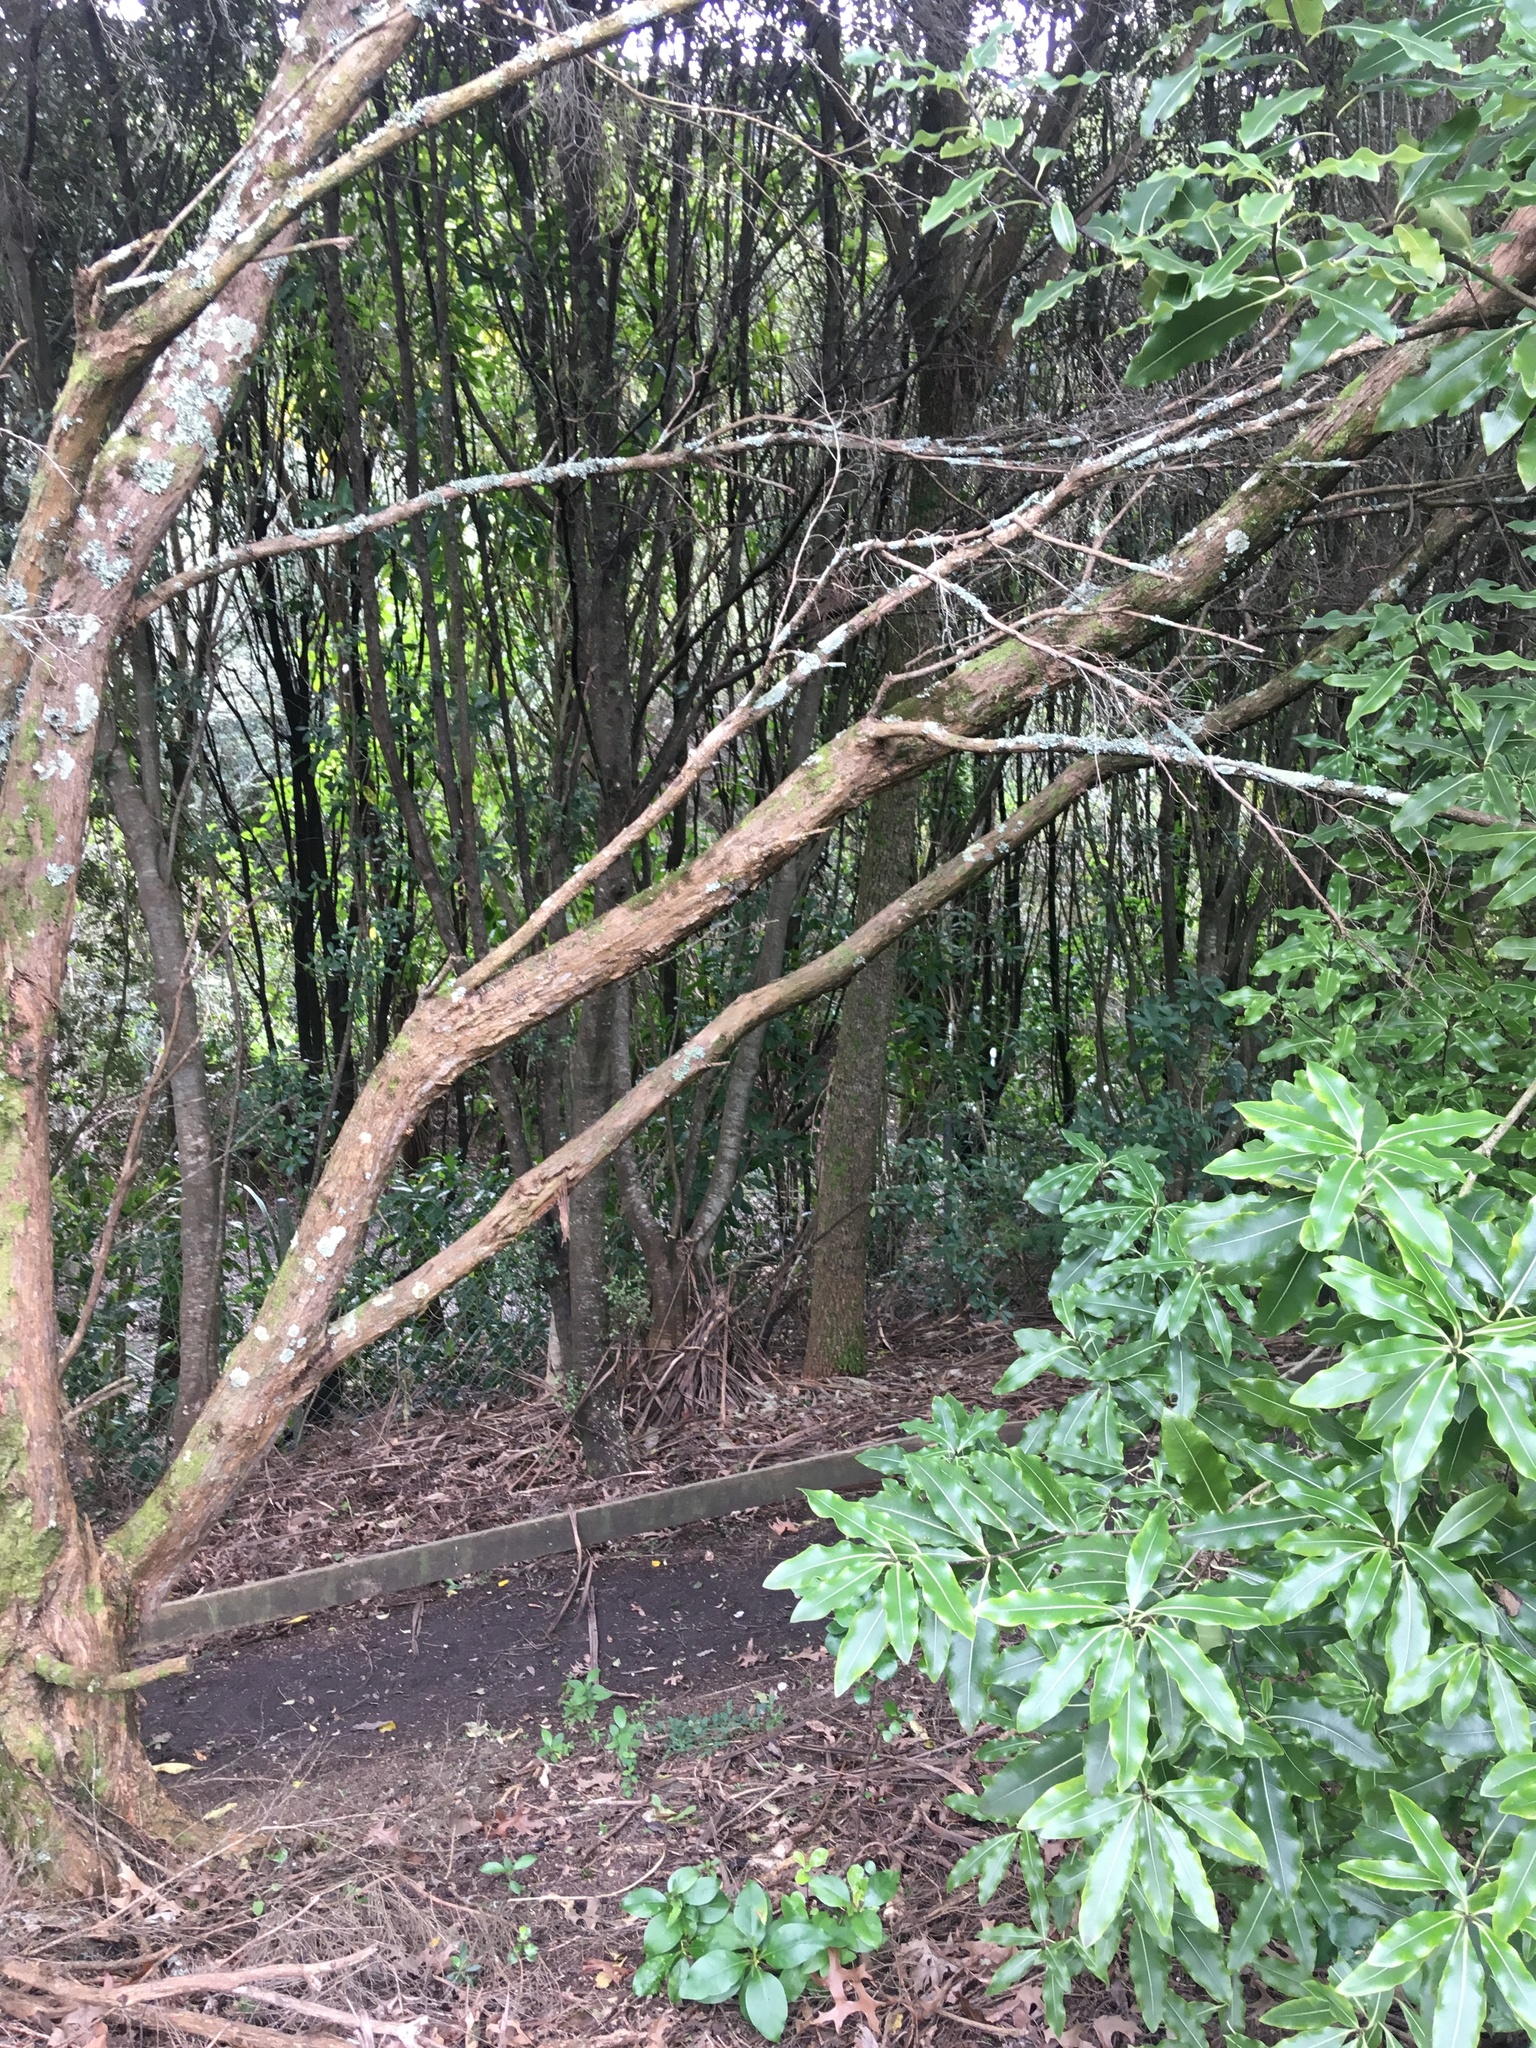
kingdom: Plantae
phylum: Tracheophyta
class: Magnoliopsida
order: Apiales
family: Pittosporaceae
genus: Pittosporum
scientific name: Pittosporum eugenioides
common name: Lemonwood
